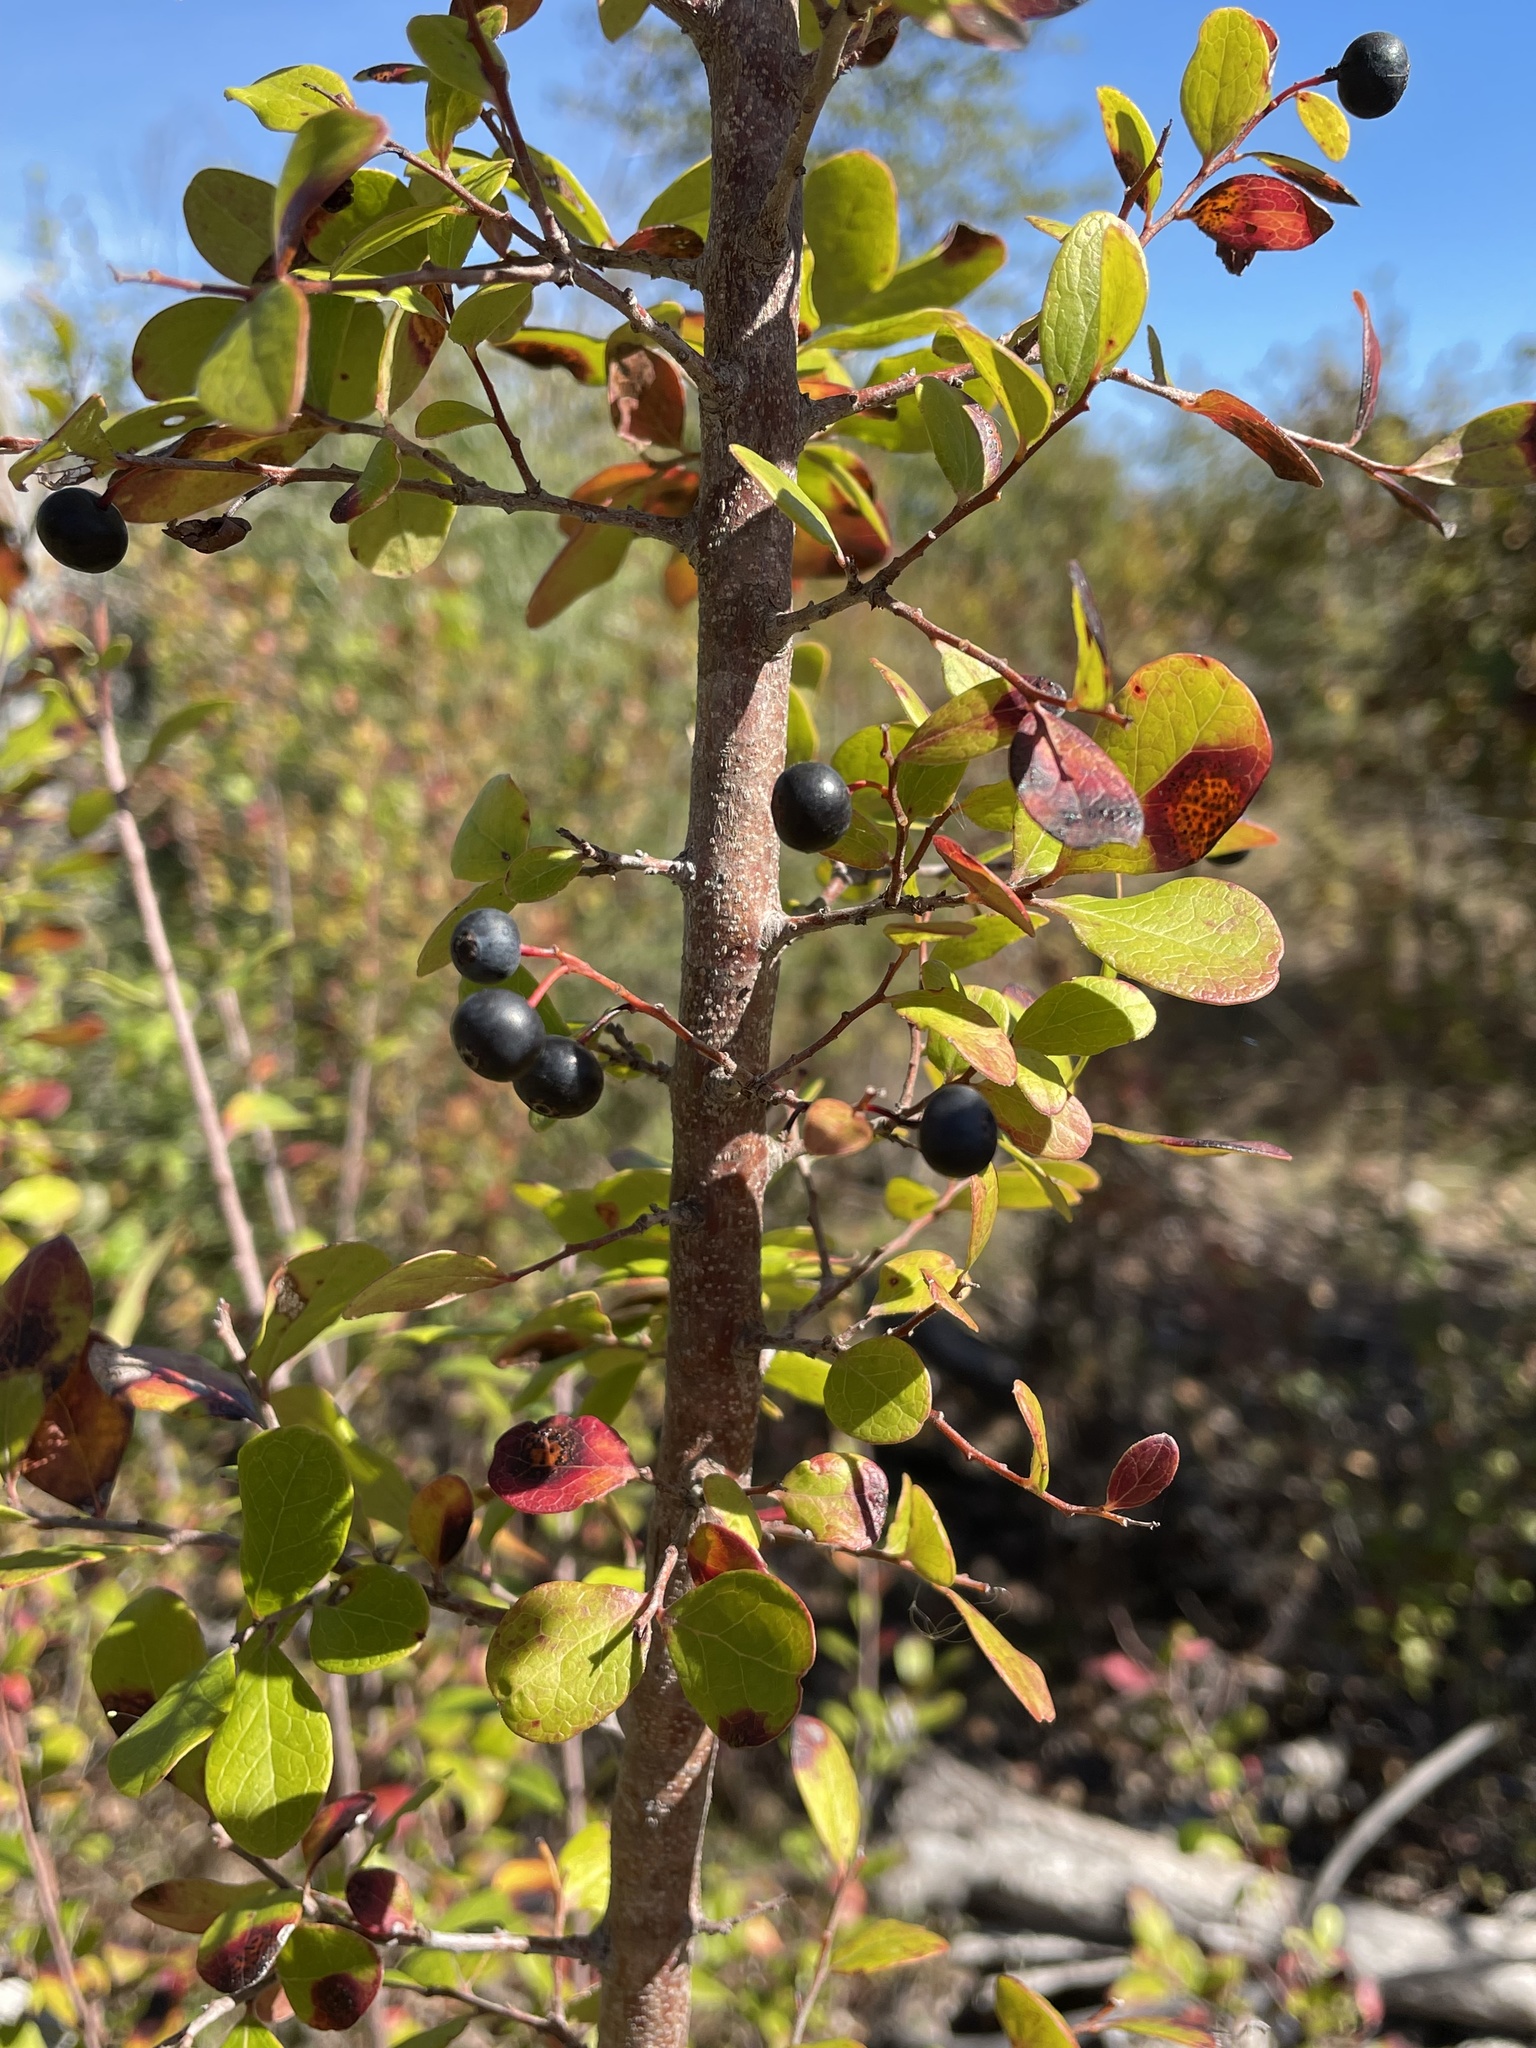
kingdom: Plantae
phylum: Tracheophyta
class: Magnoliopsida
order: Ericales
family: Ericaceae
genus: Vaccinium
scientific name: Vaccinium arboreum
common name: Farkleberry
